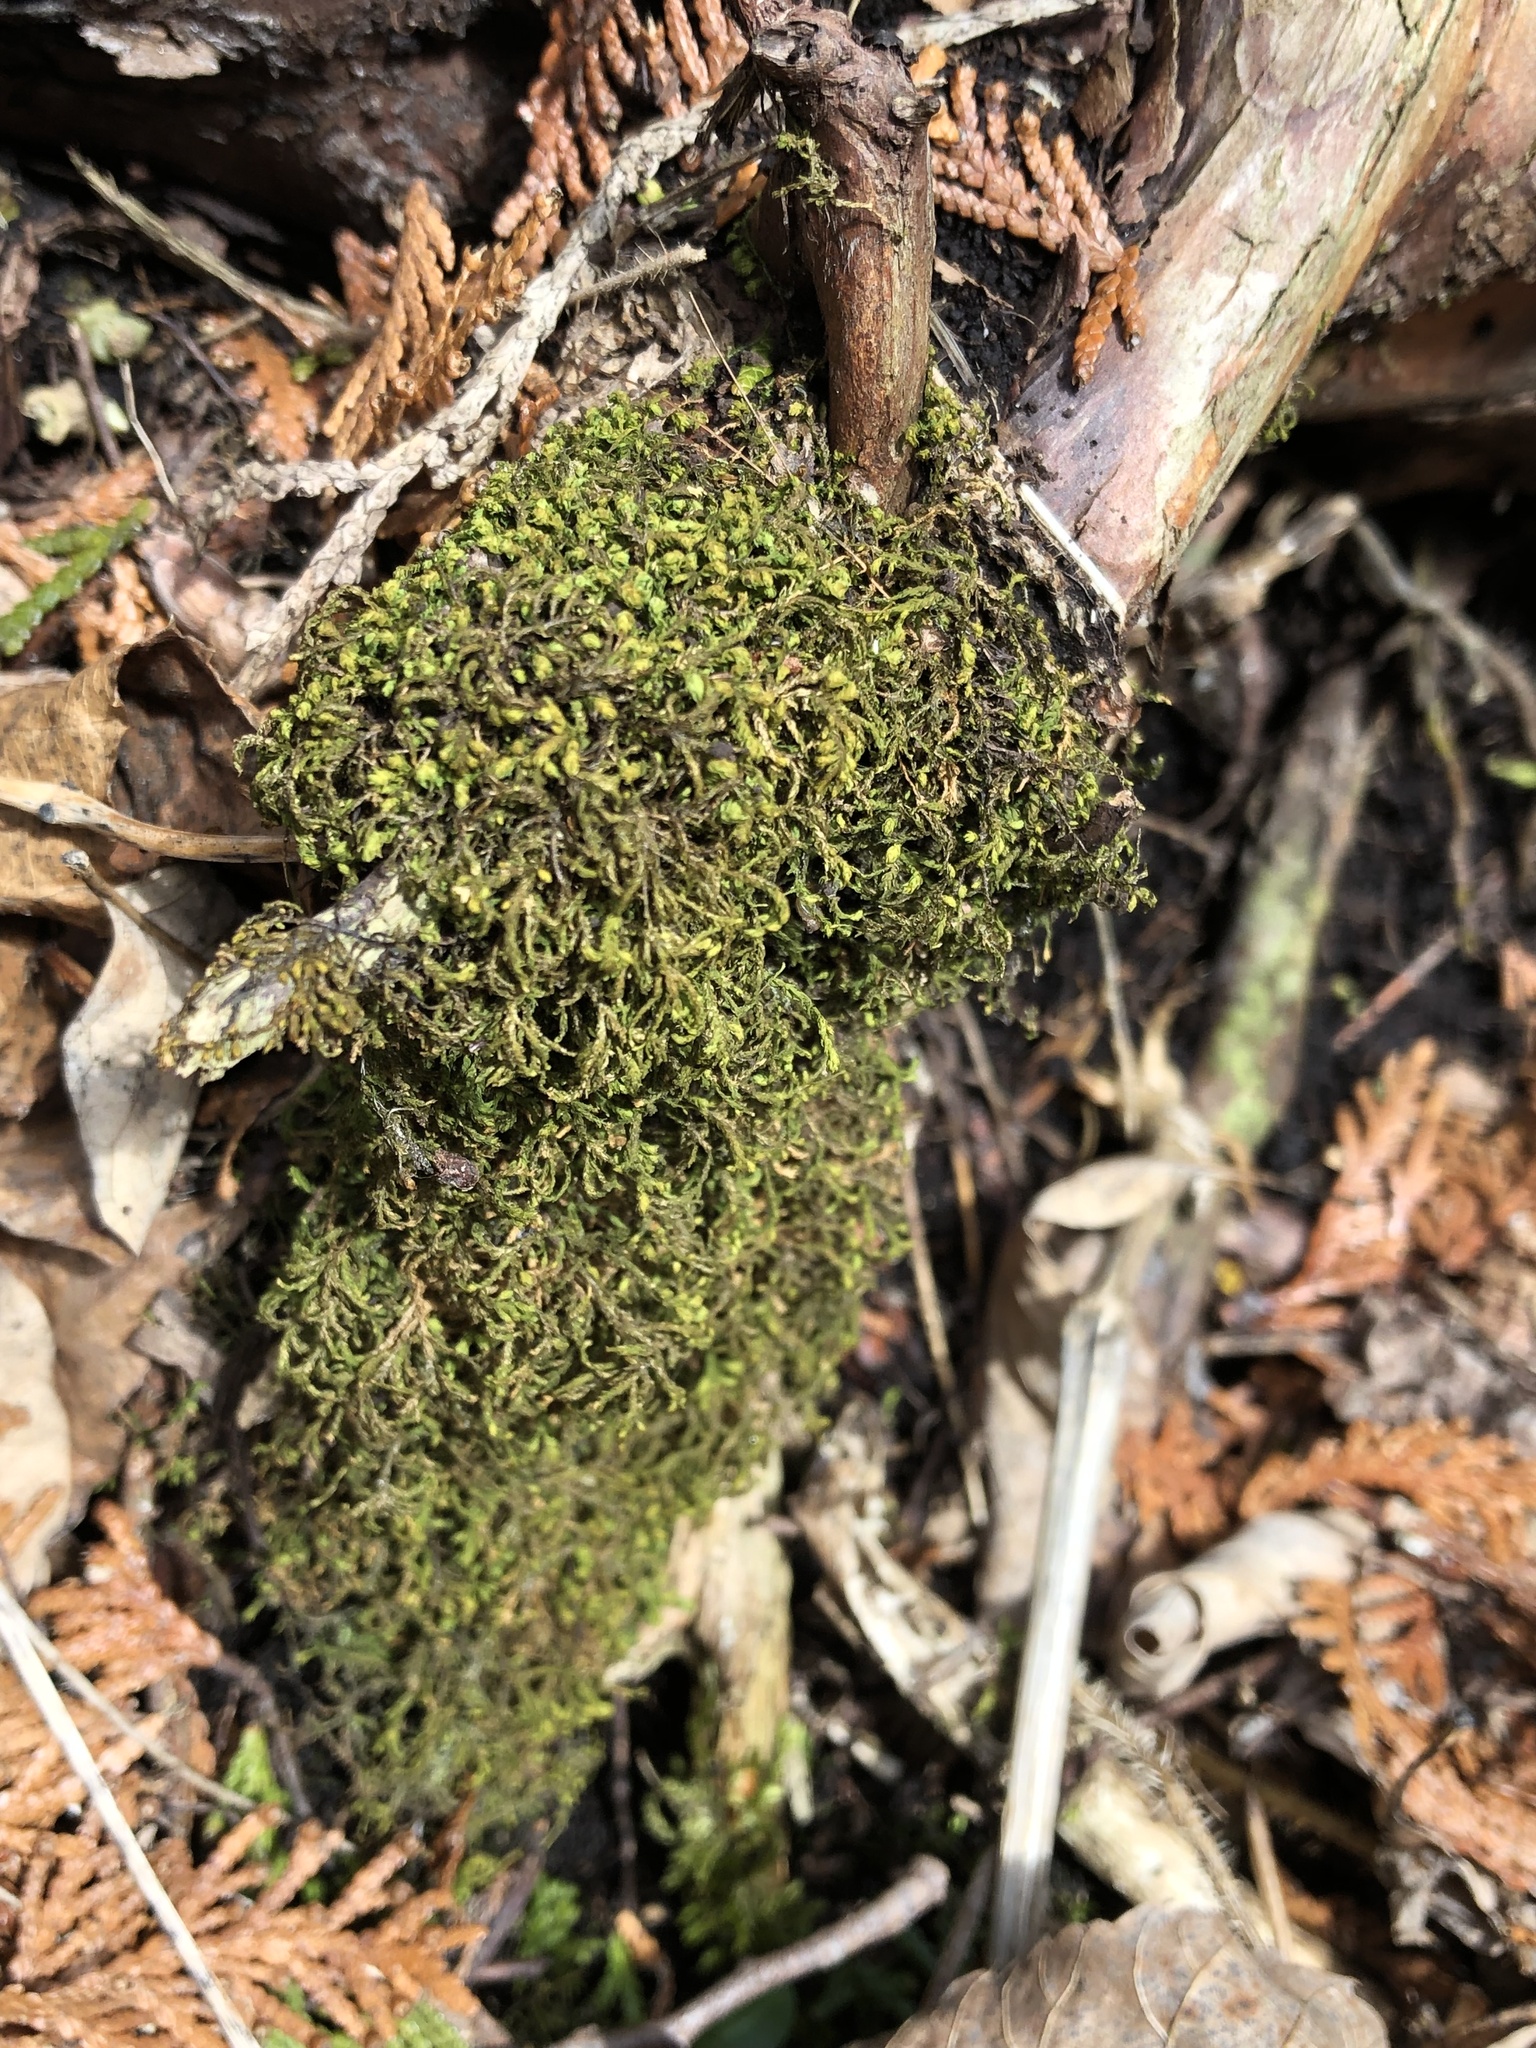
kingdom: Plantae
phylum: Bryophyta
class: Bryopsida
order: Hypnales
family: Neckeraceae
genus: Pseudanomodon
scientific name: Pseudanomodon attenuatus
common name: Tree-skirt moss
